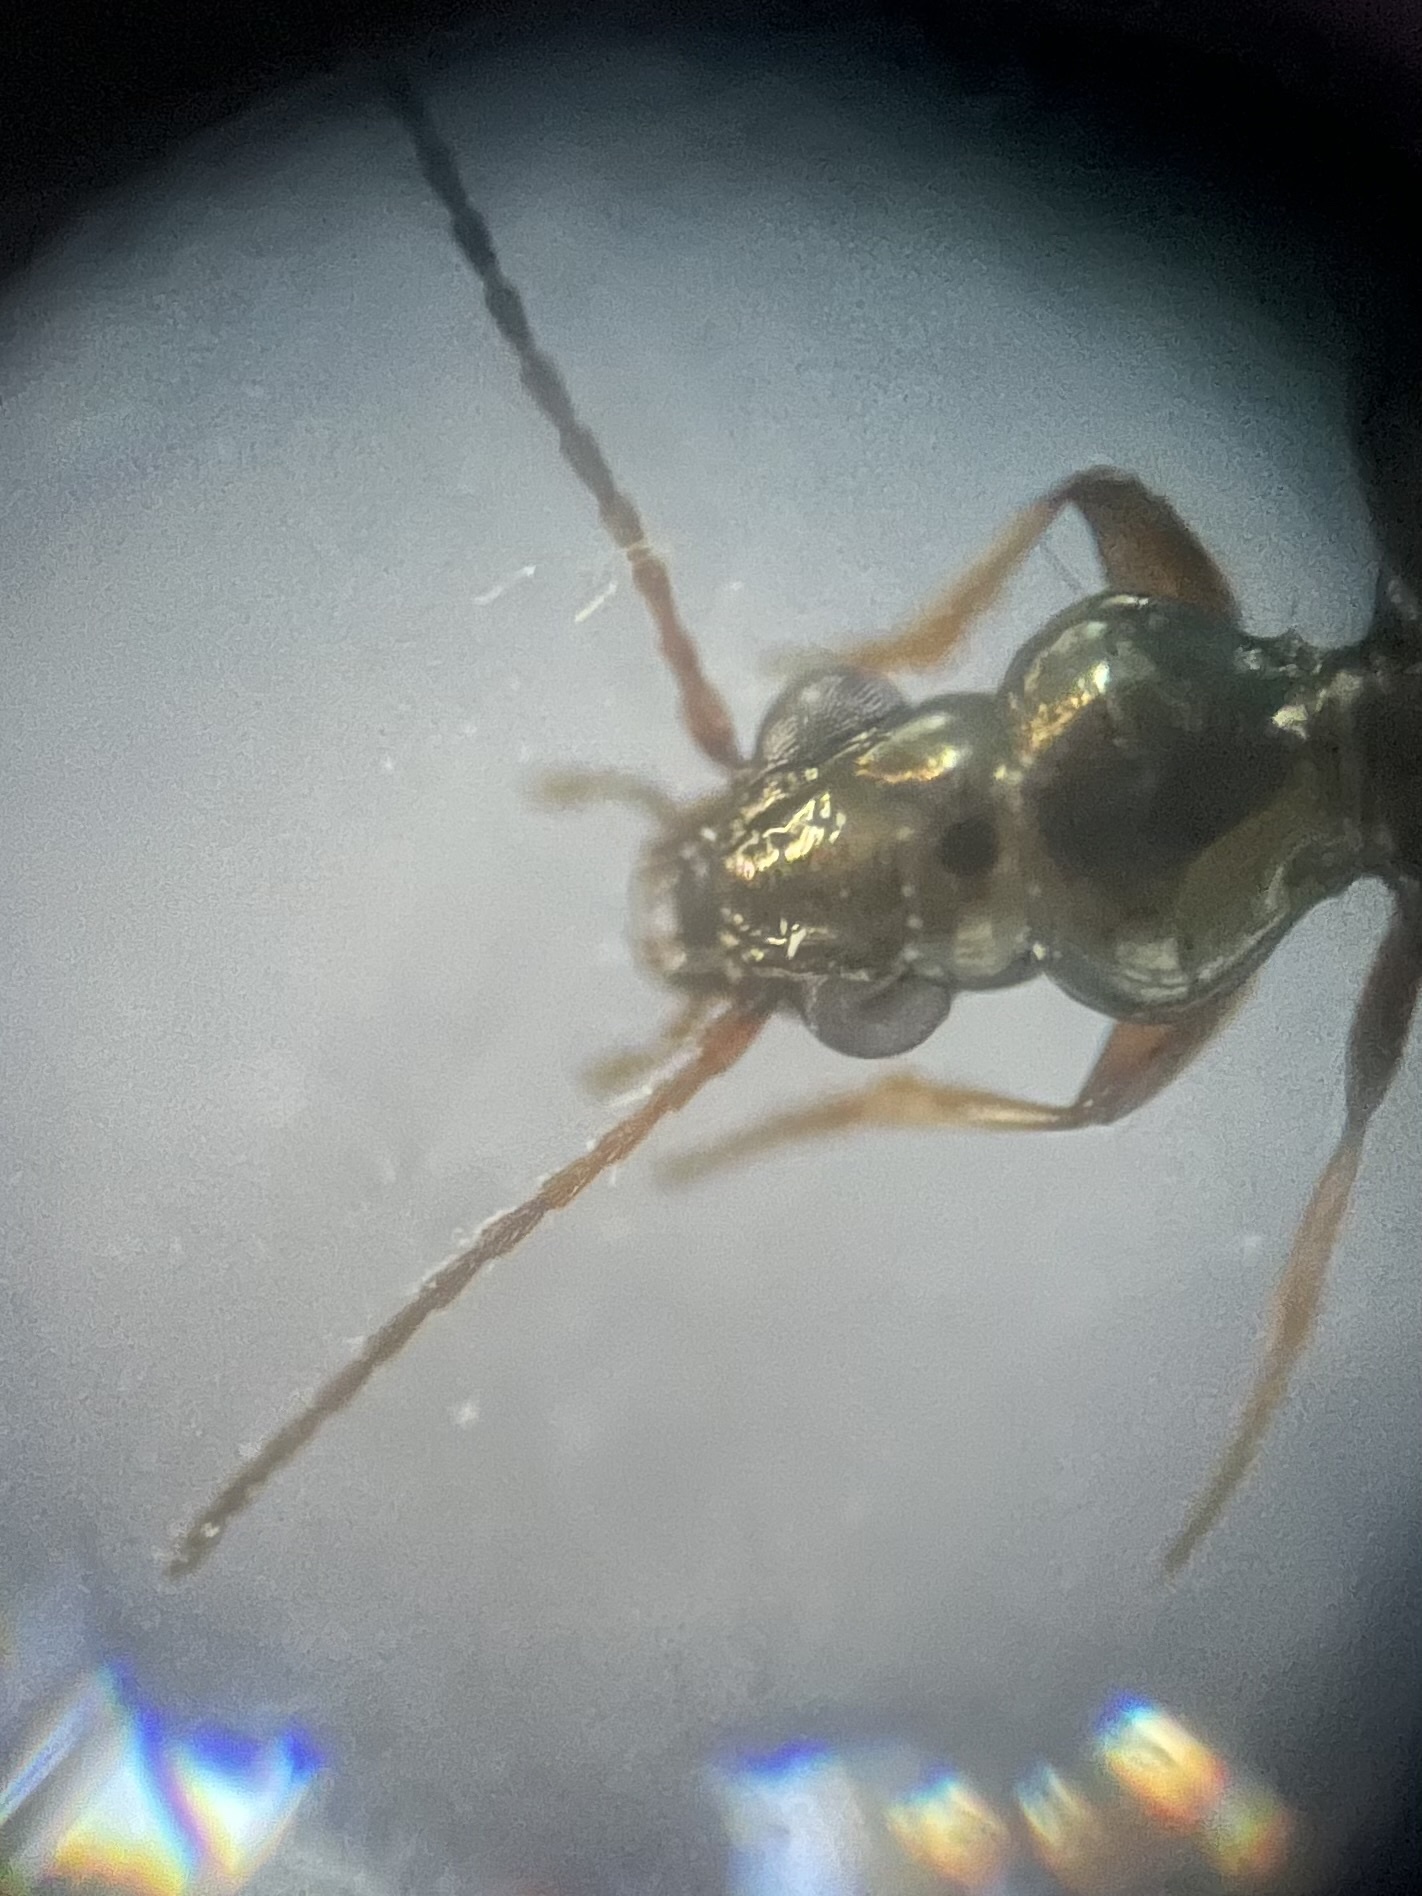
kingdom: Animalia
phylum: Arthropoda
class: Insecta
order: Coleoptera
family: Carabidae
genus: Bembidion
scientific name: Bembidion quadrimaculatum
